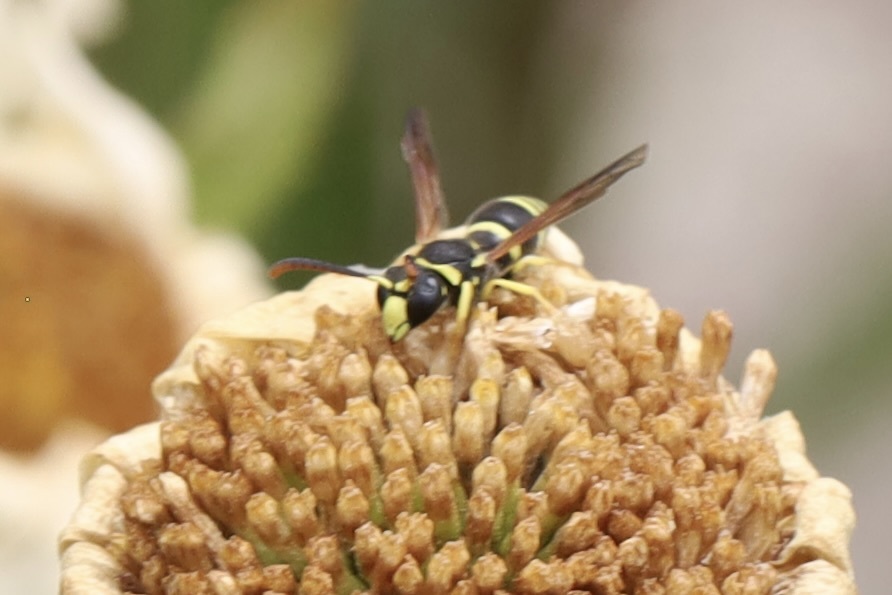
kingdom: Animalia
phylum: Arthropoda
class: Insecta
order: Hymenoptera
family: Vespidae
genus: Ancistrocerus
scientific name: Ancistrocerus
